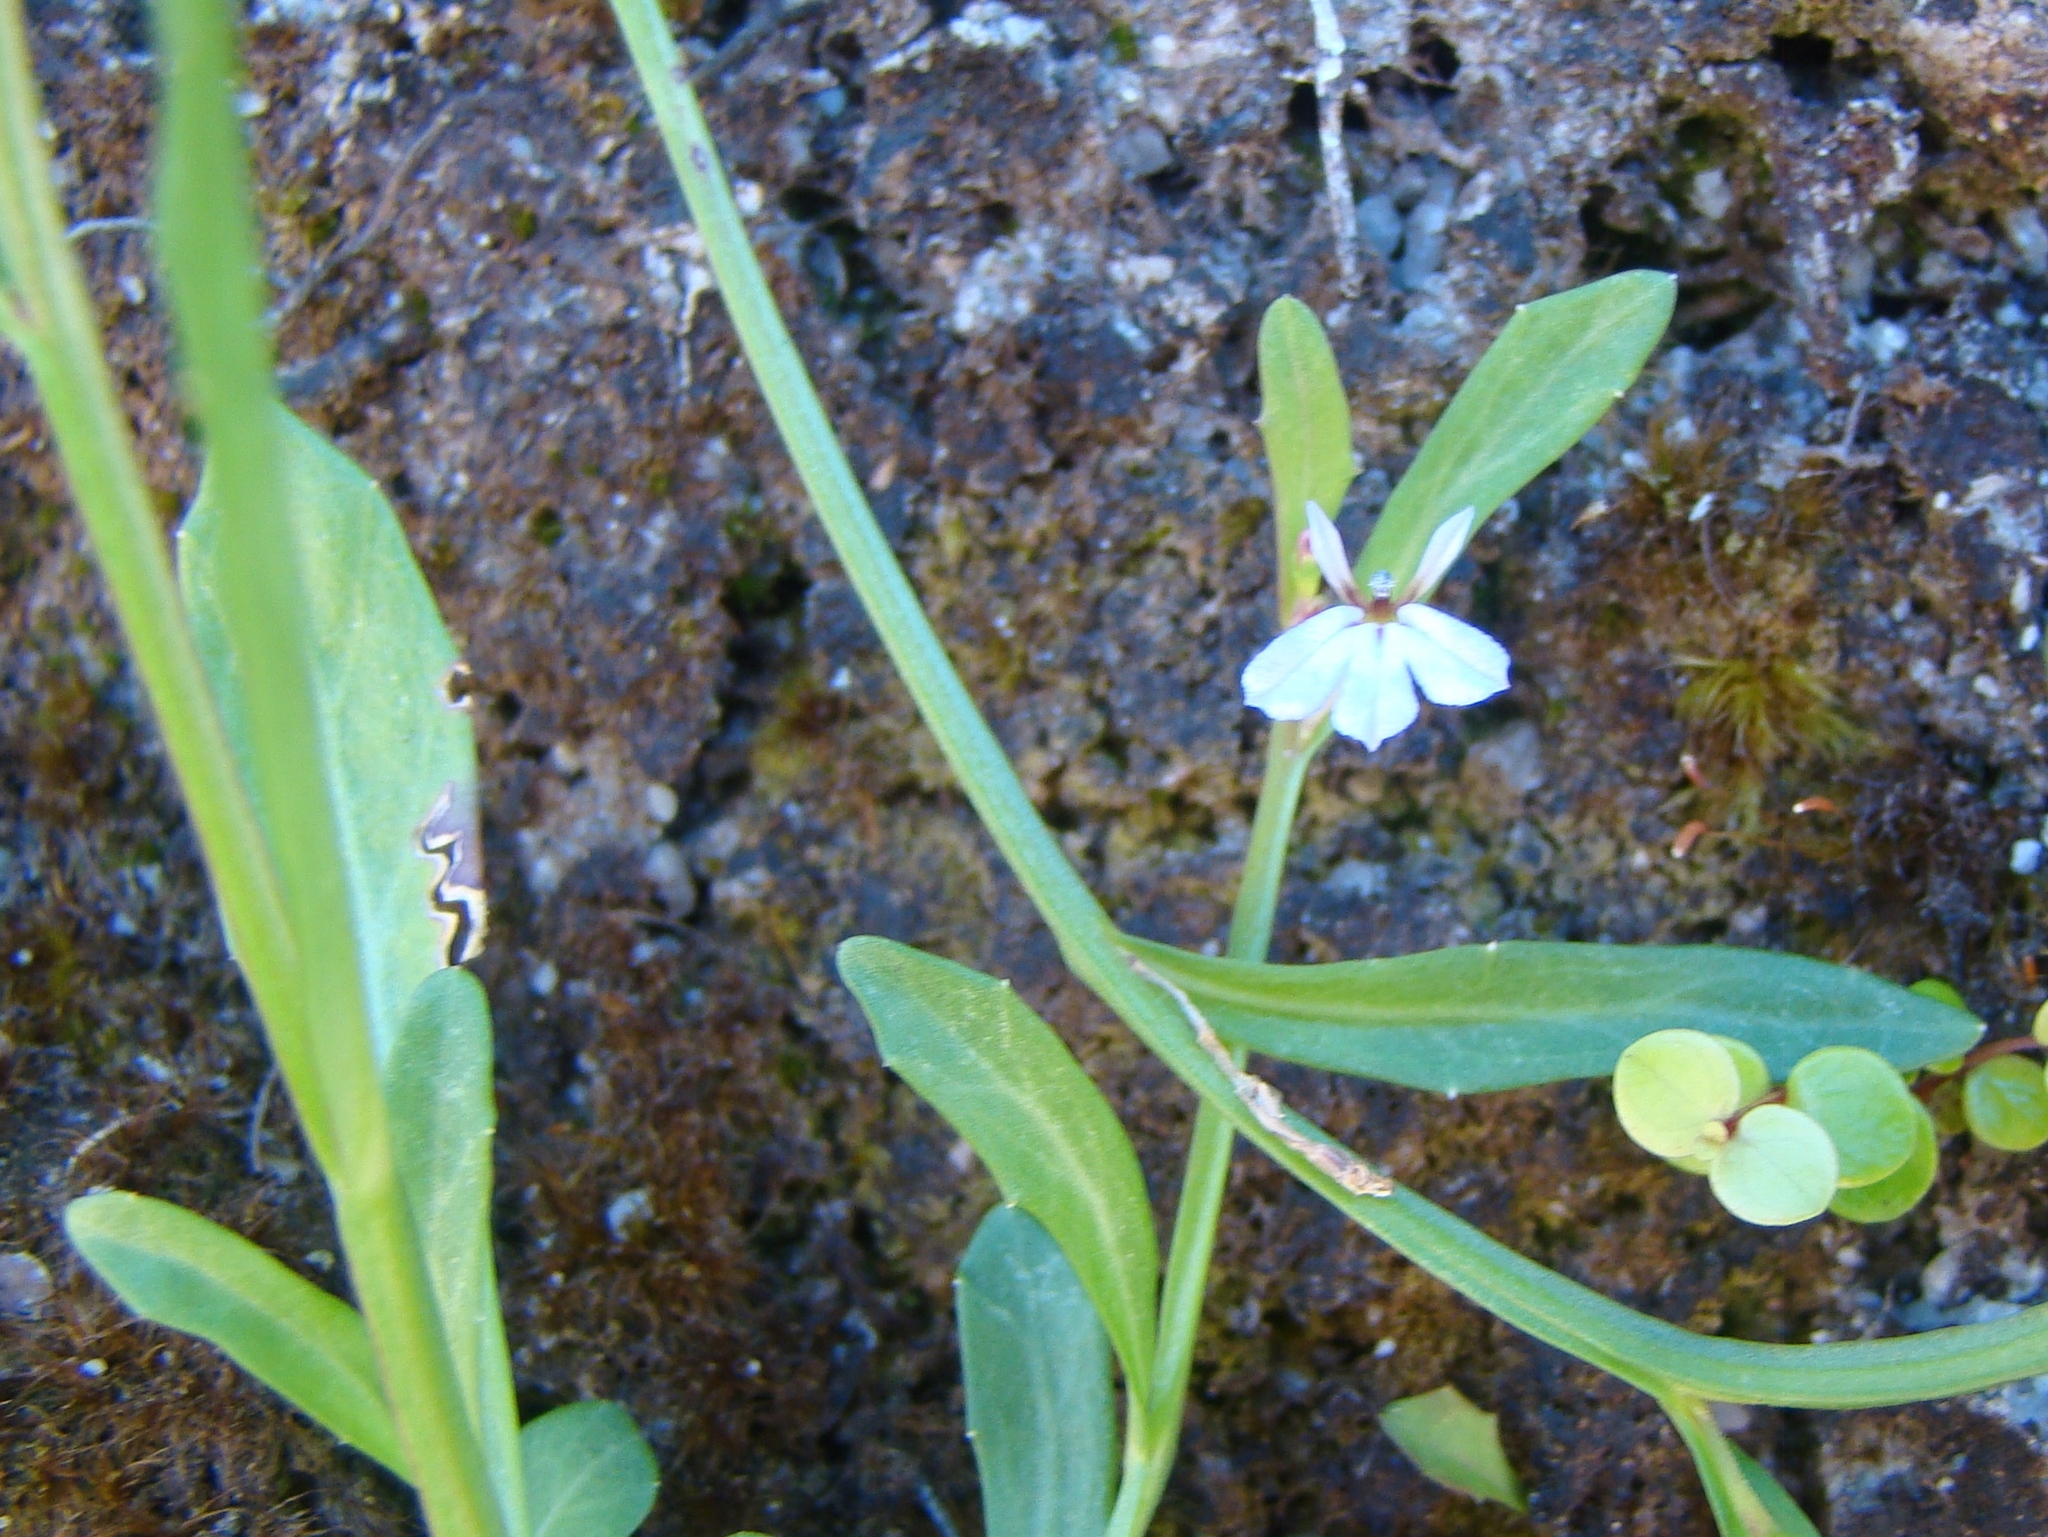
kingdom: Plantae
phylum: Tracheophyta
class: Magnoliopsida
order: Asterales
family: Campanulaceae
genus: Lobelia
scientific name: Lobelia anceps
